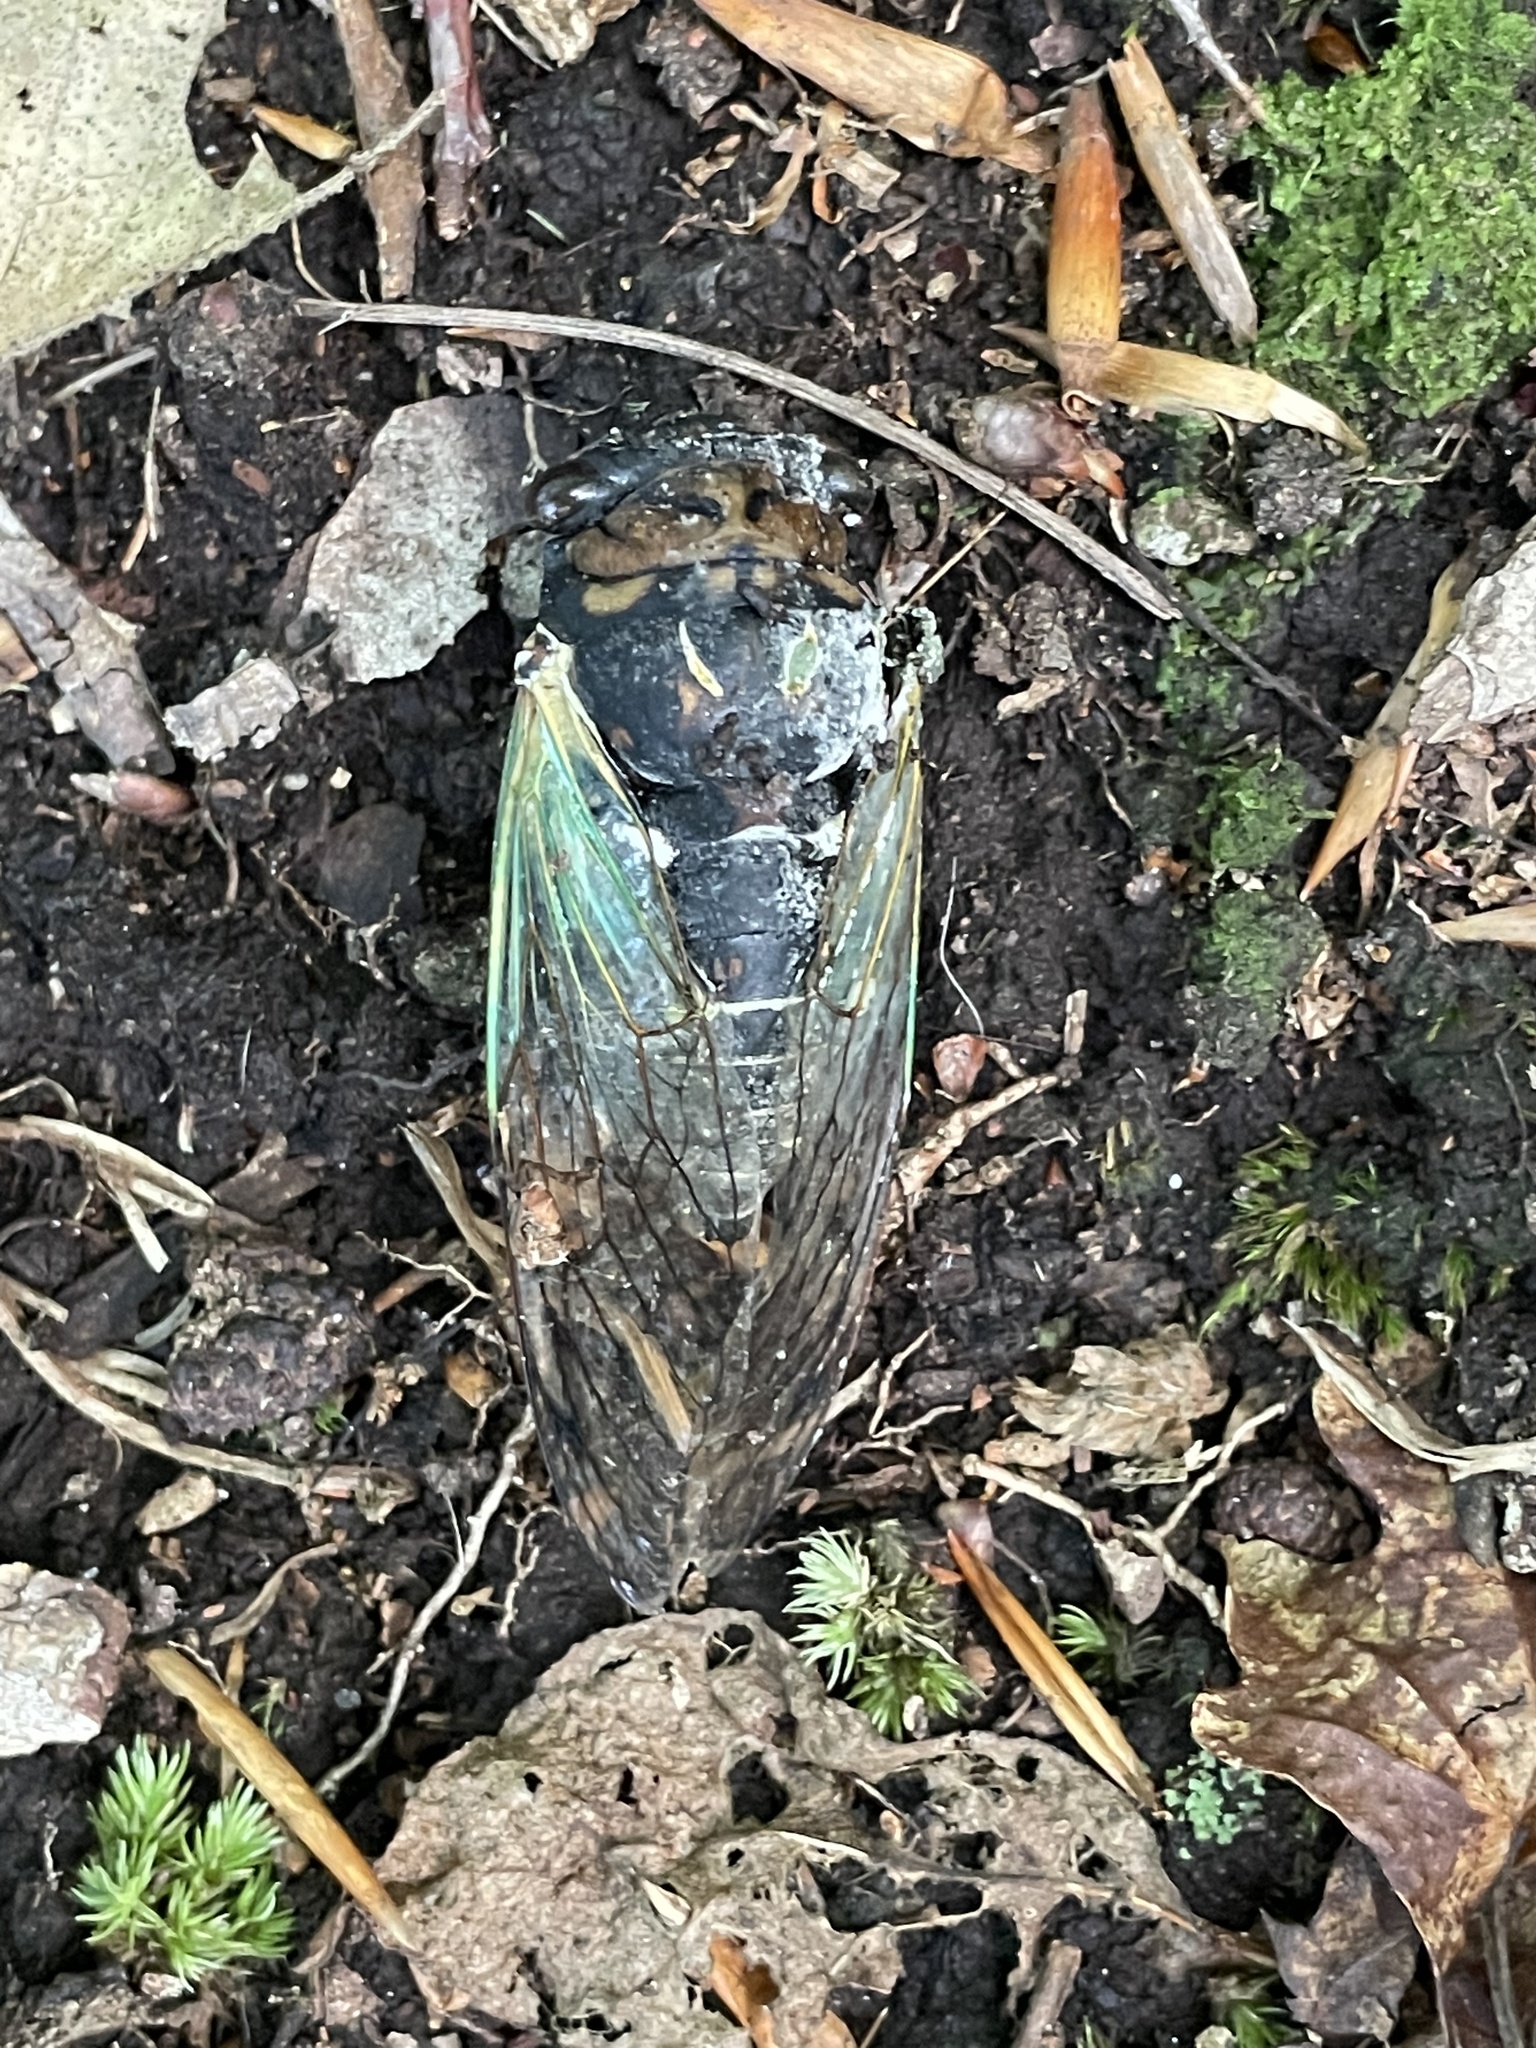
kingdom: Animalia
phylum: Arthropoda
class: Insecta
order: Hemiptera
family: Cicadidae
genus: Neotibicen
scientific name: Neotibicen tibicen
